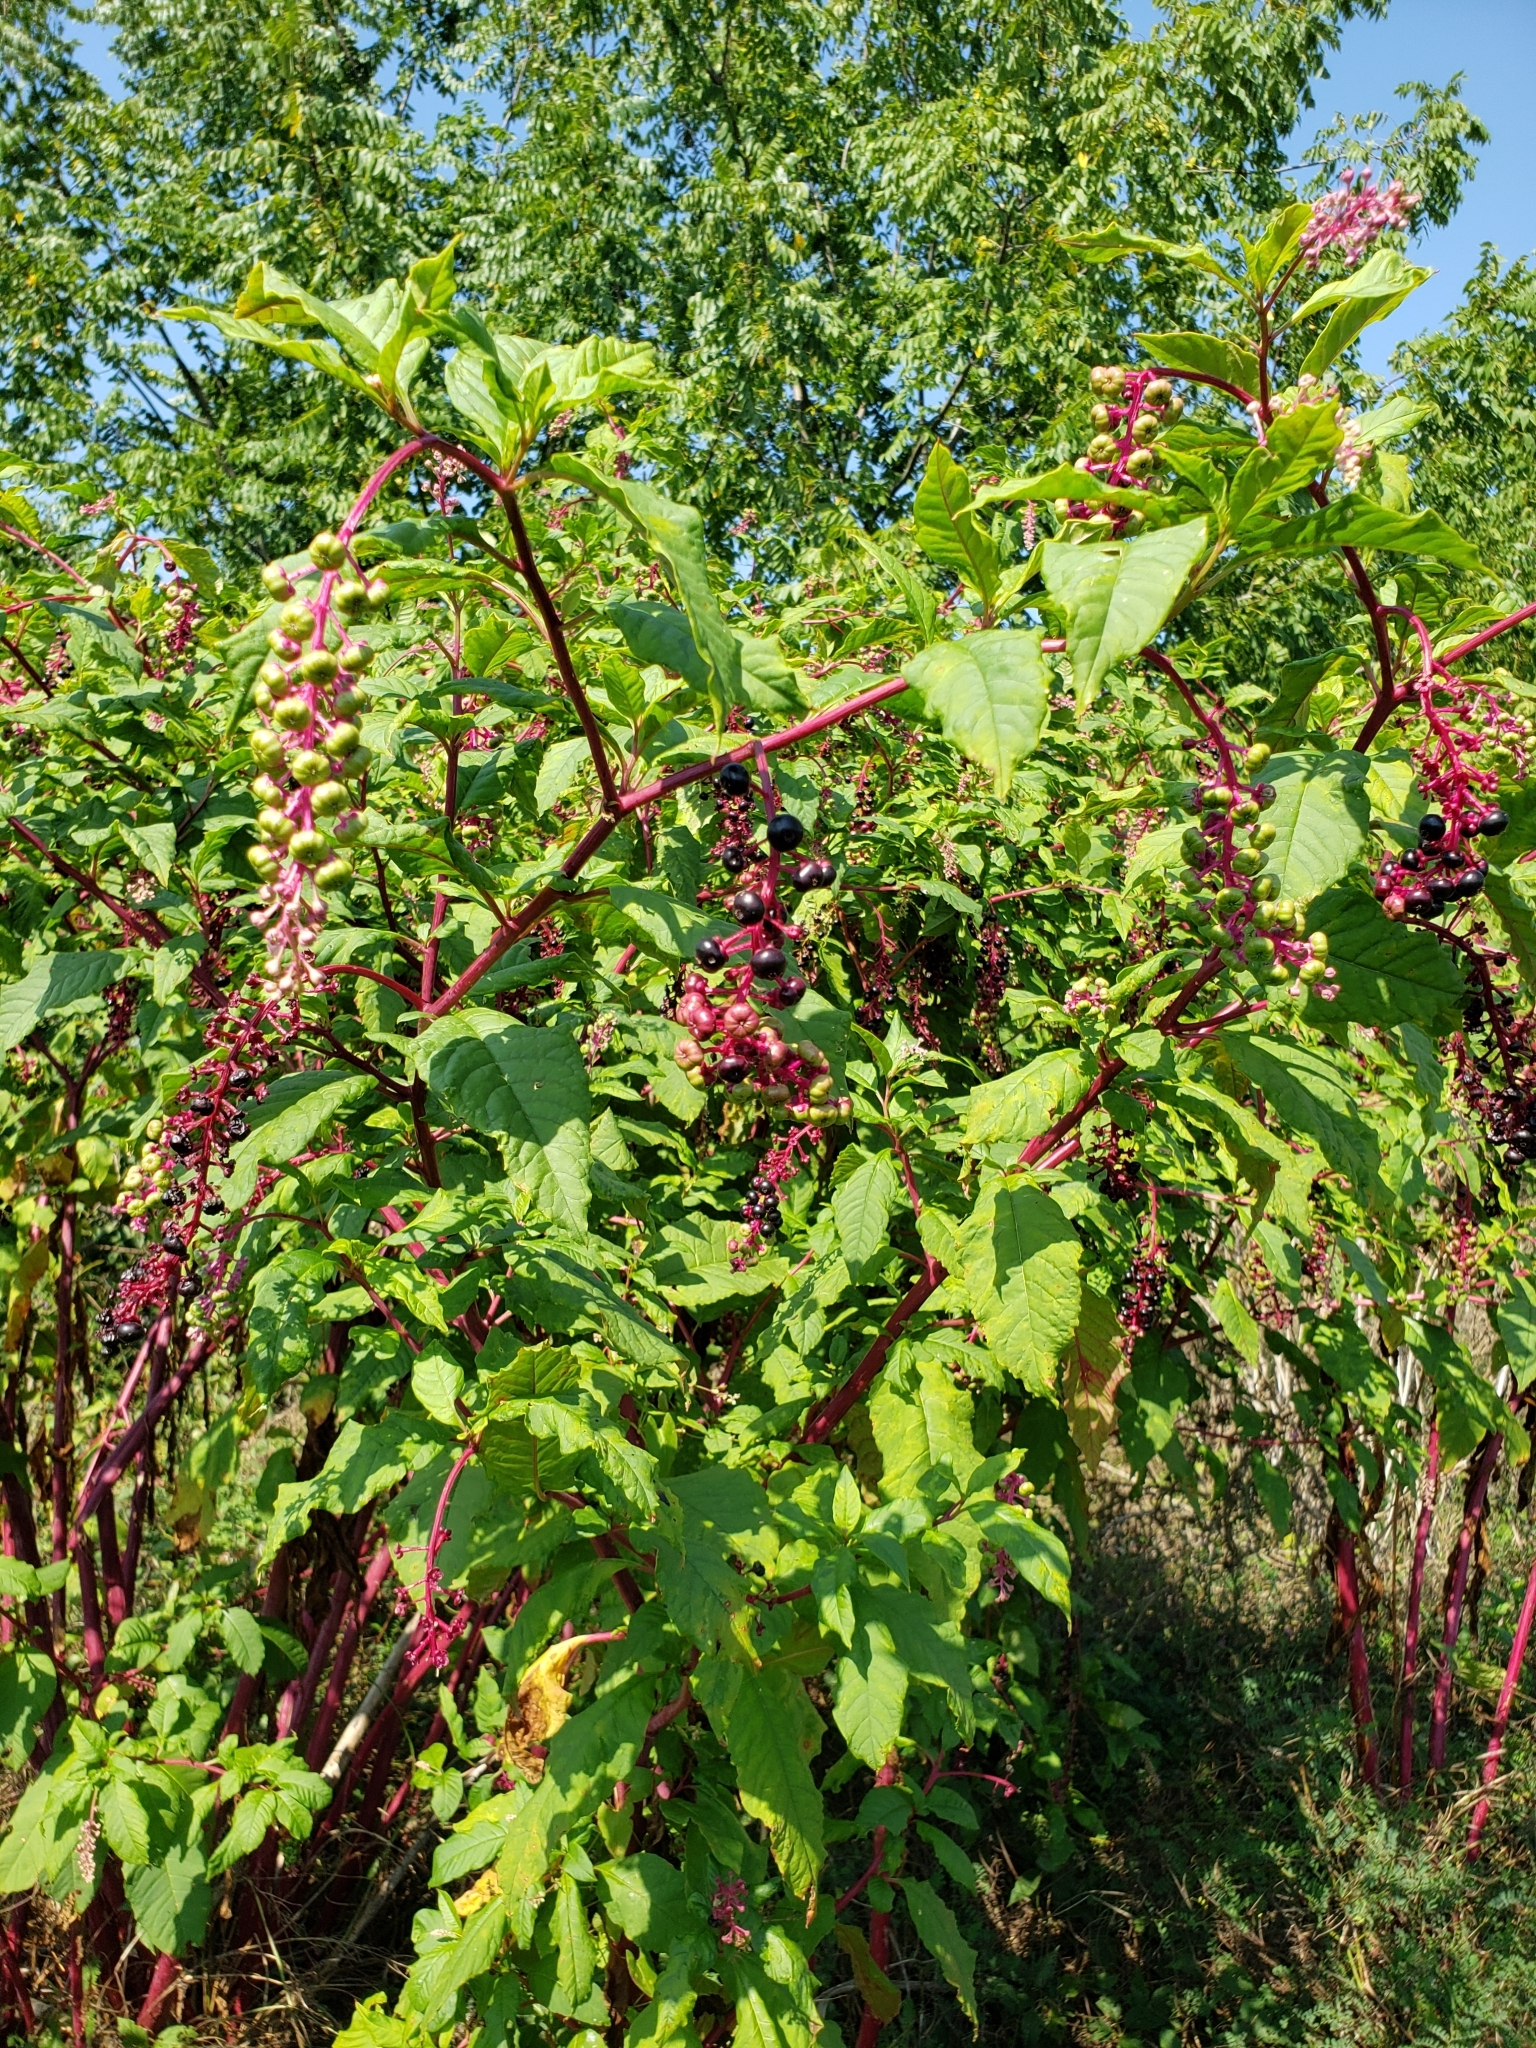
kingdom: Plantae
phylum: Tracheophyta
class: Magnoliopsida
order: Caryophyllales
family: Phytolaccaceae
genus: Phytolacca
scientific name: Phytolacca americana
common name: American pokeweed
